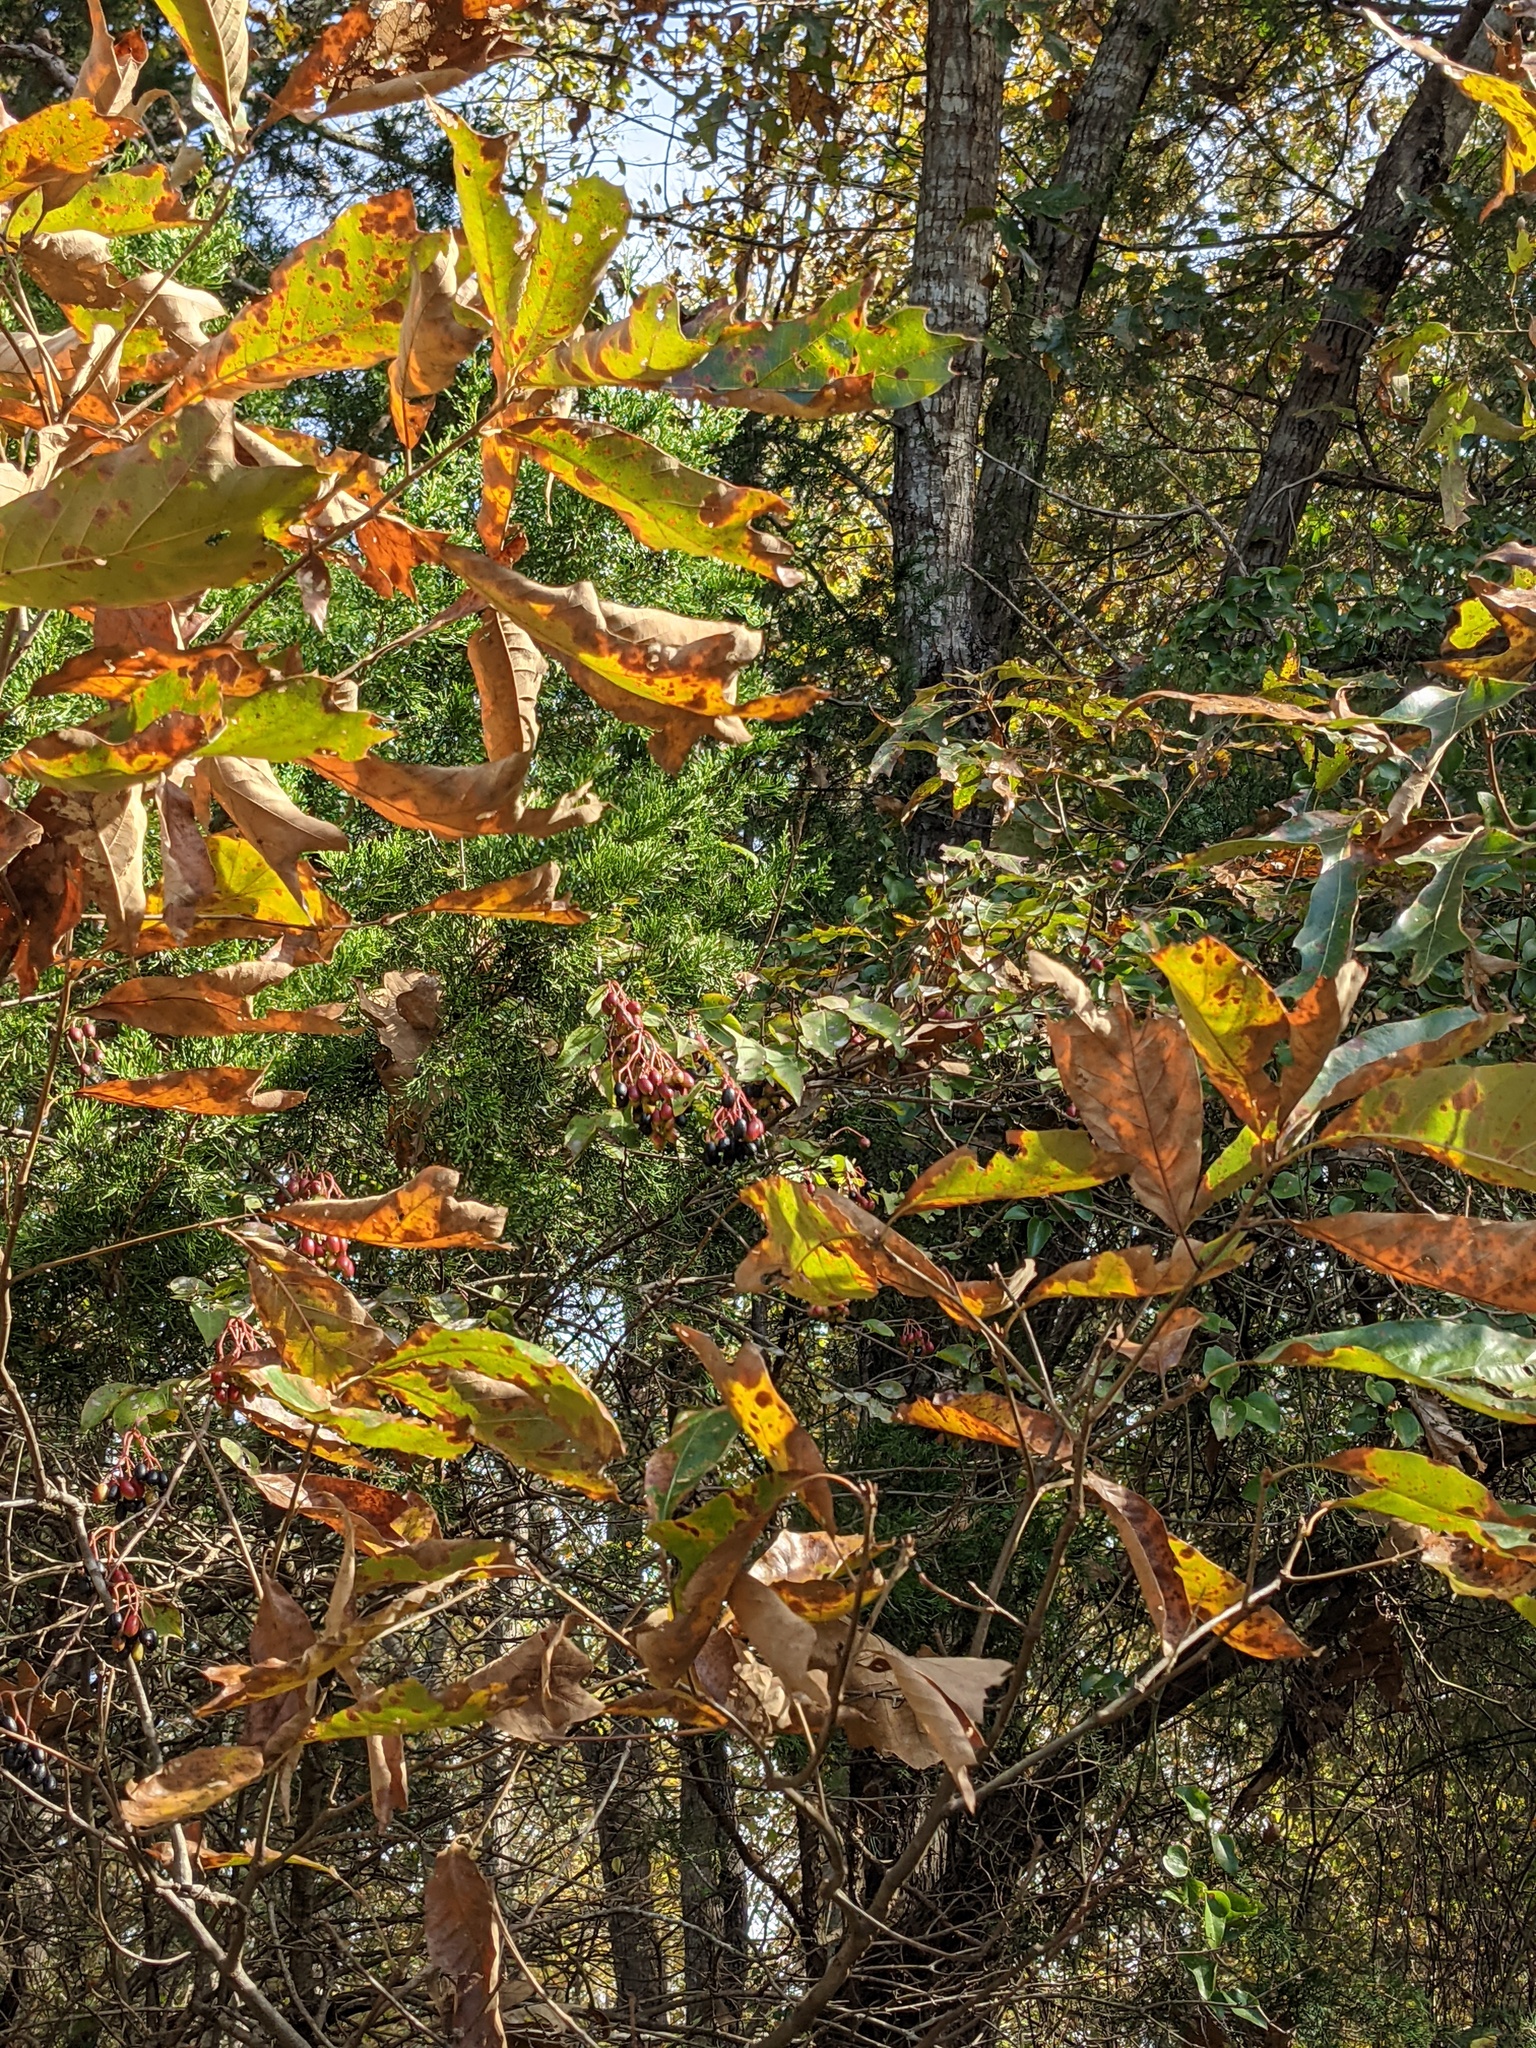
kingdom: Plantae
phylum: Tracheophyta
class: Magnoliopsida
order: Fagales
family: Fagaceae
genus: Quercus
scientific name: Quercus falcata
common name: Southern red oak
